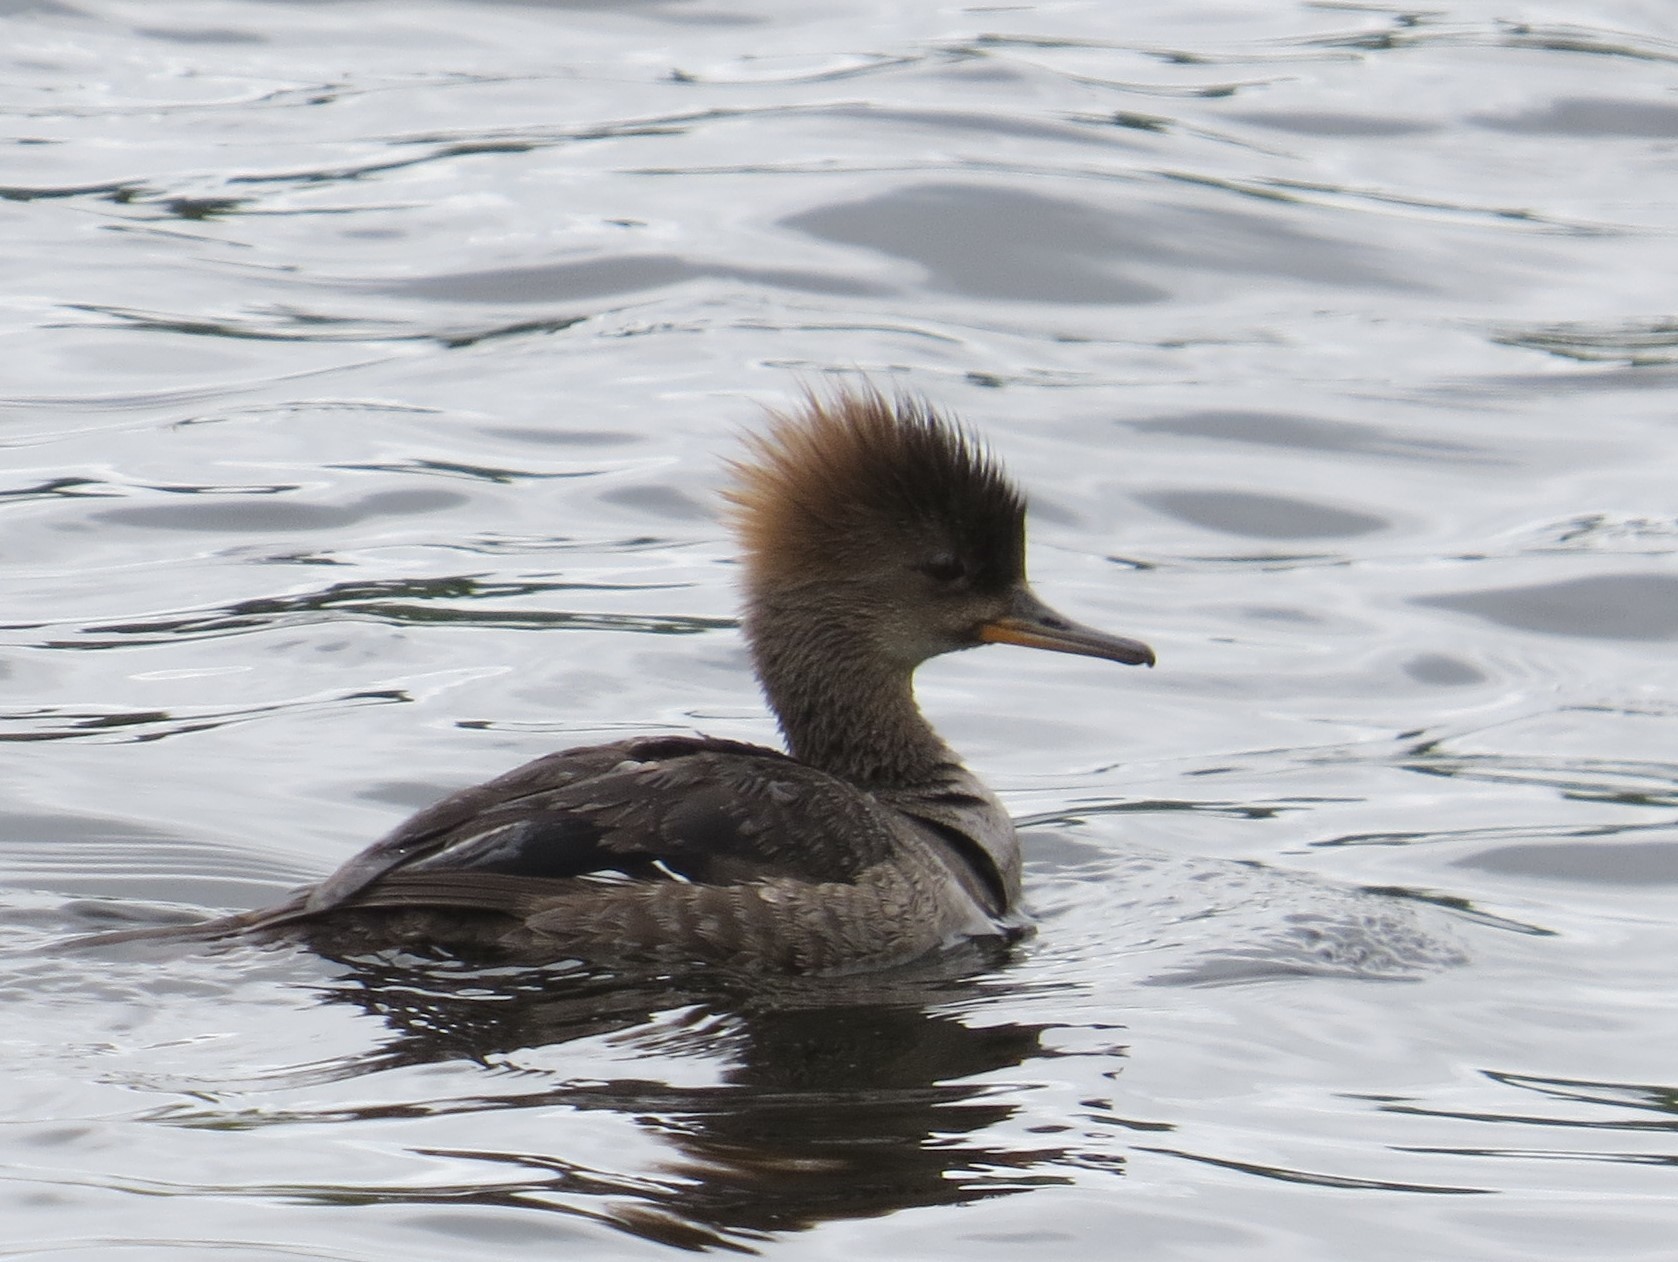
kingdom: Animalia
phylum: Chordata
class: Aves
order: Anseriformes
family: Anatidae
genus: Lophodytes
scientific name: Lophodytes cucullatus
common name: Hooded merganser
